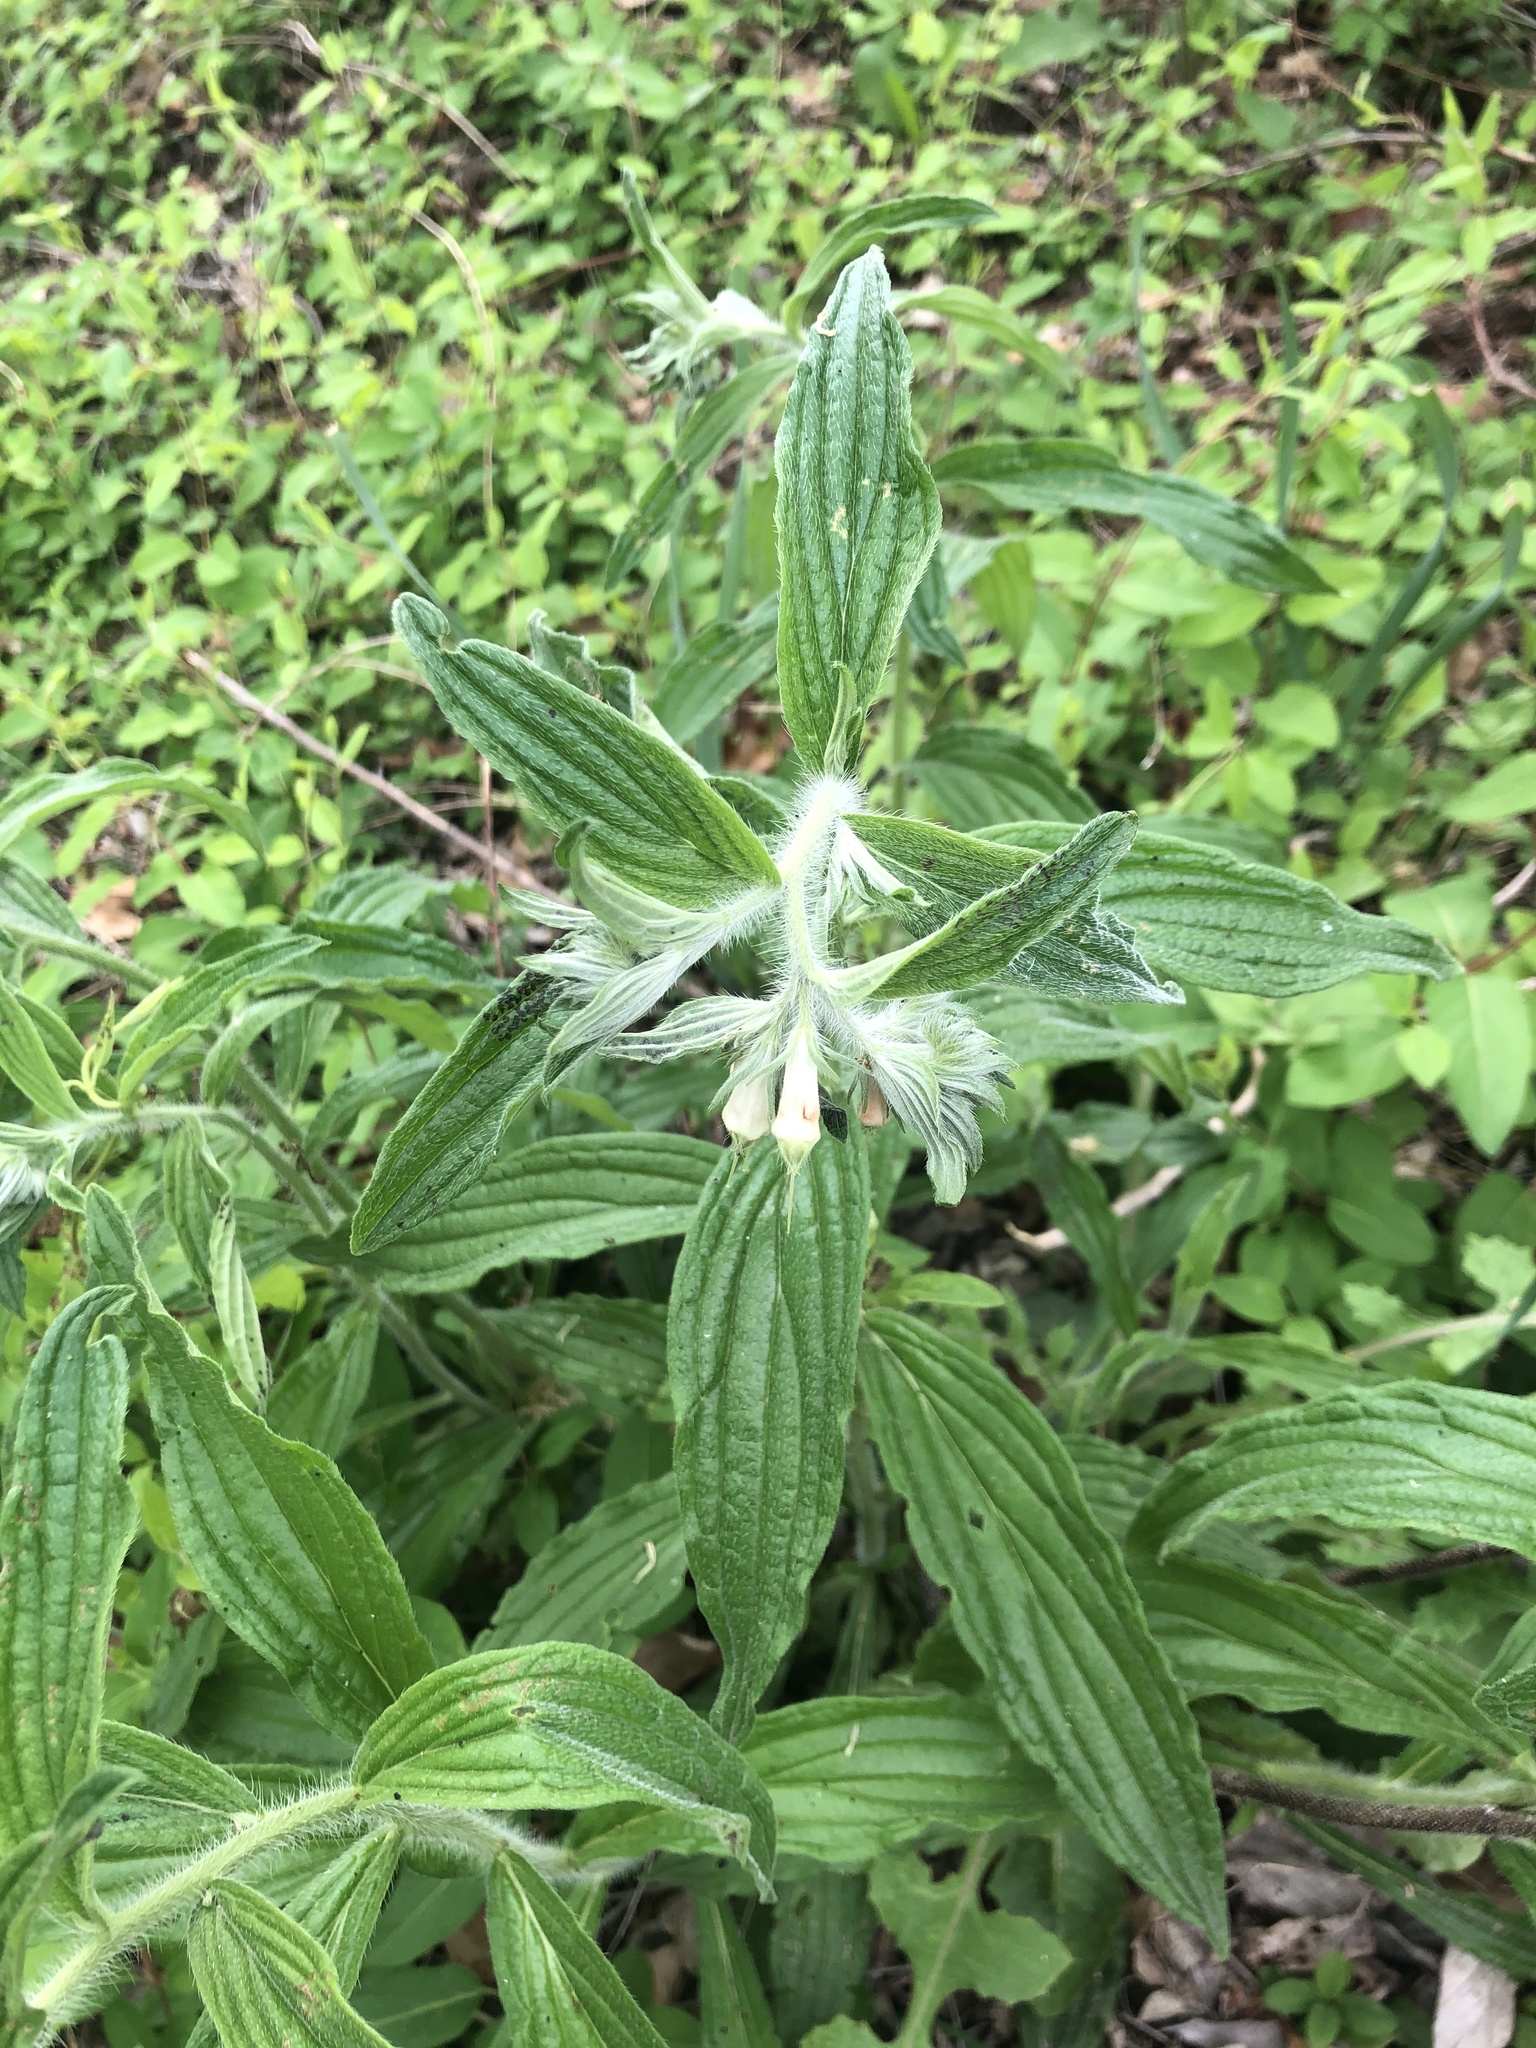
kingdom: Plantae
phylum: Tracheophyta
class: Magnoliopsida
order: Boraginales
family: Boraginaceae
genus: Lithospermum
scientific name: Lithospermum caroliniense
